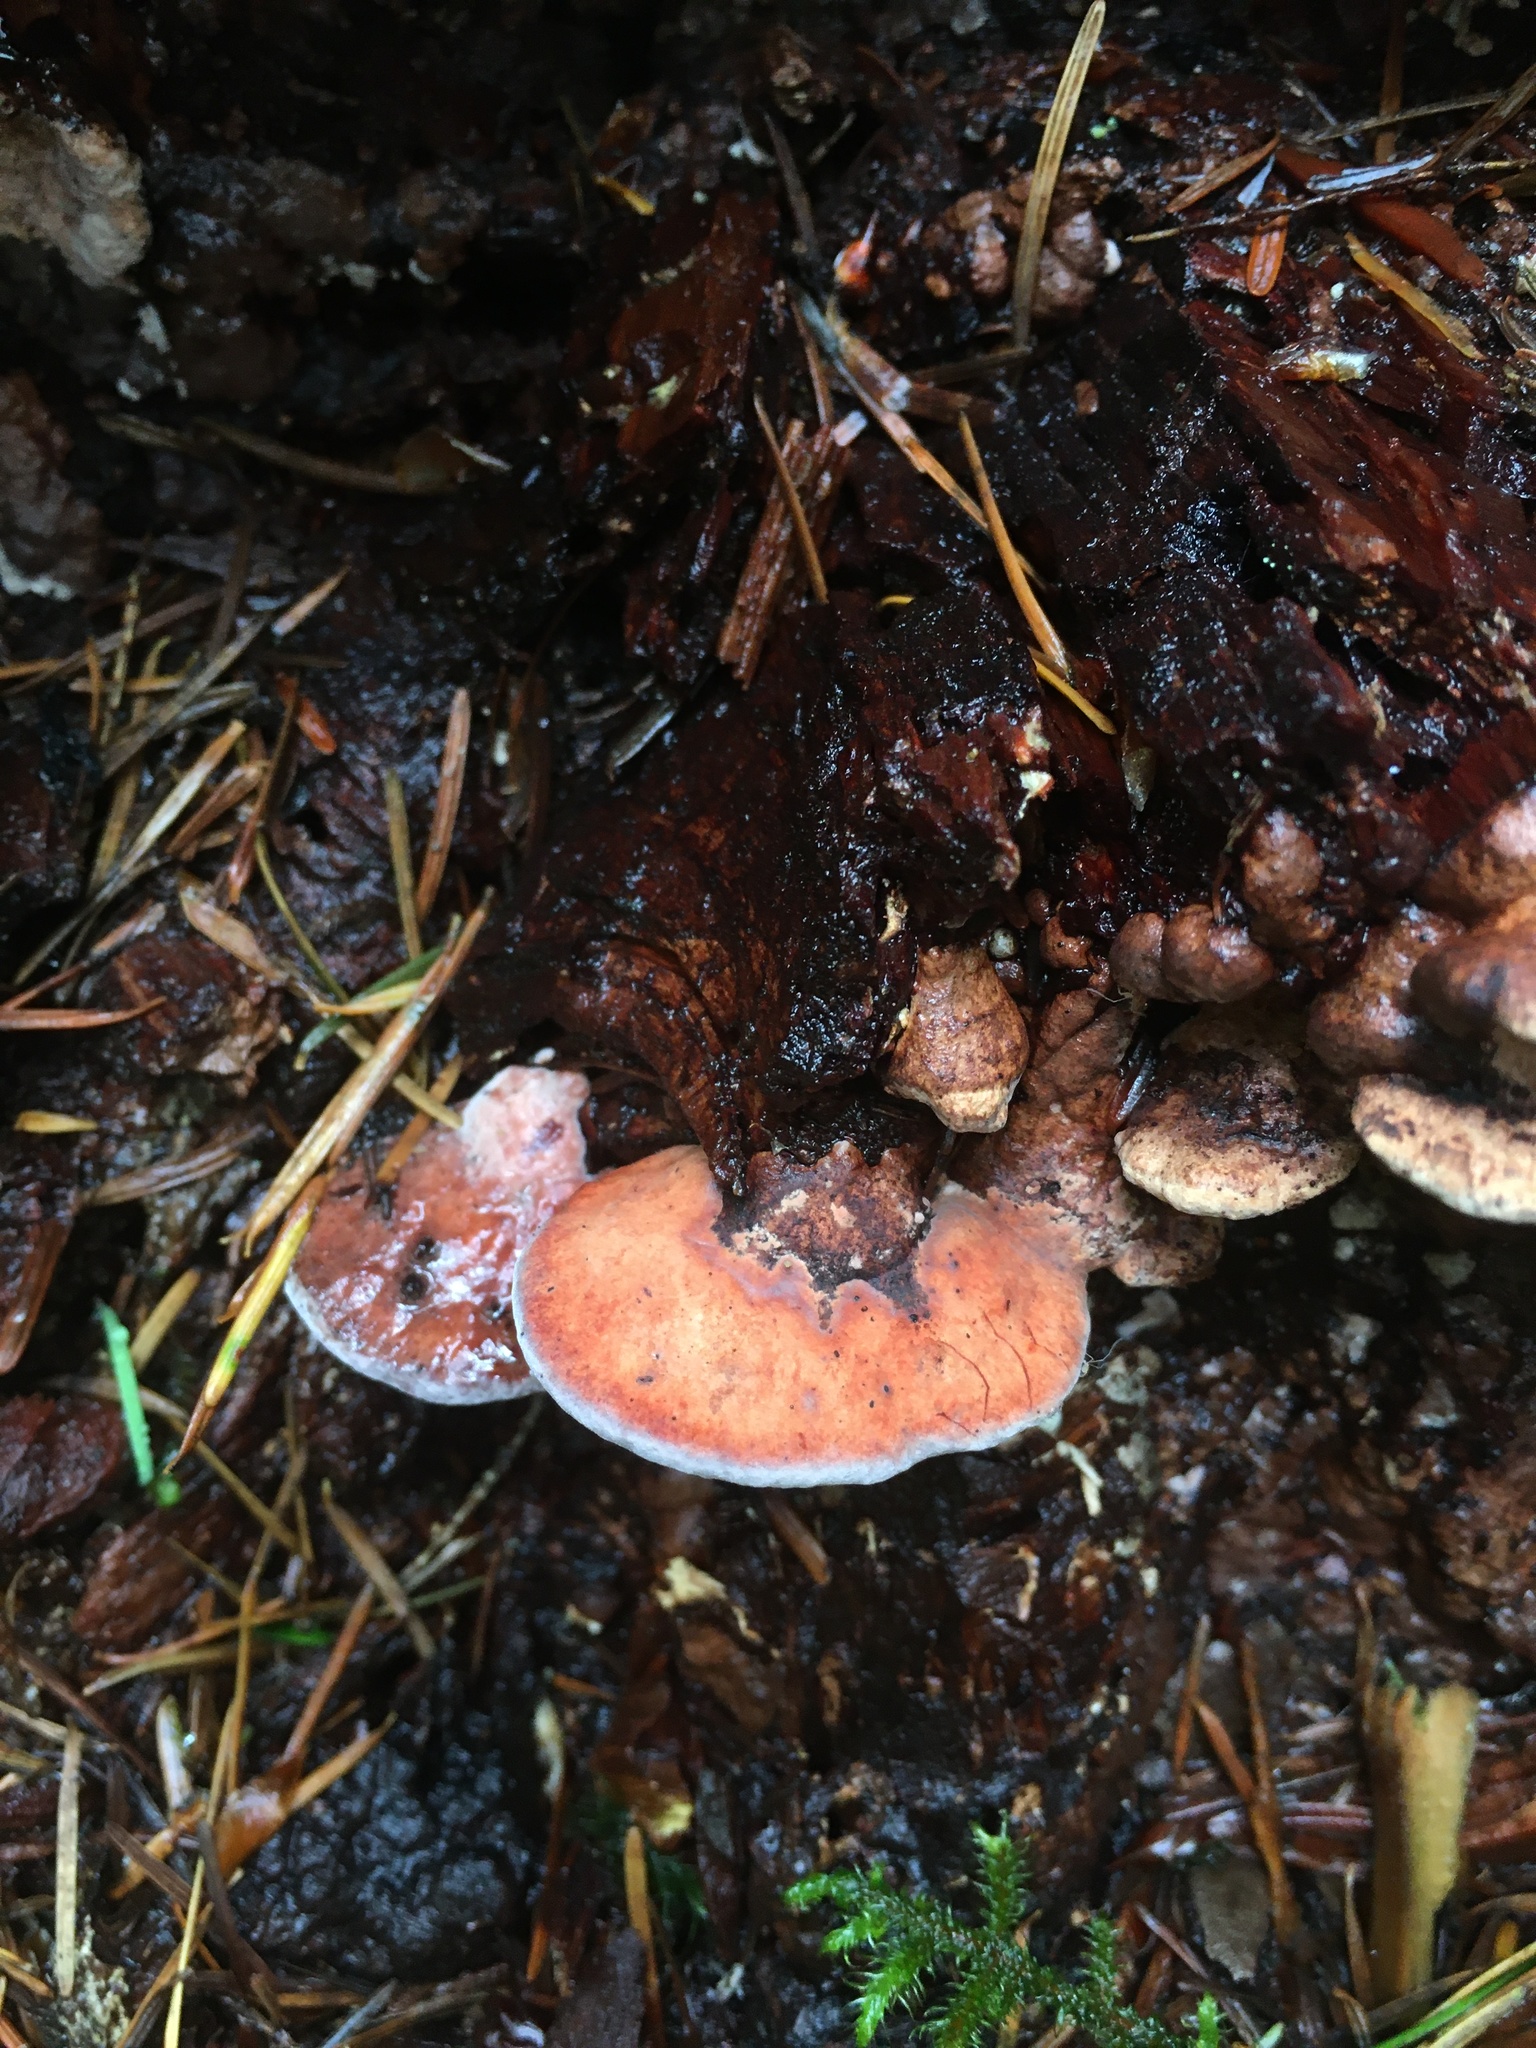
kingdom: Fungi
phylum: Basidiomycota
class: Agaricomycetes
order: Polyporales
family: Fomitopsidaceae
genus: Rhodofomes
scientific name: Rhodofomes cajanderi
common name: Rosy conk
